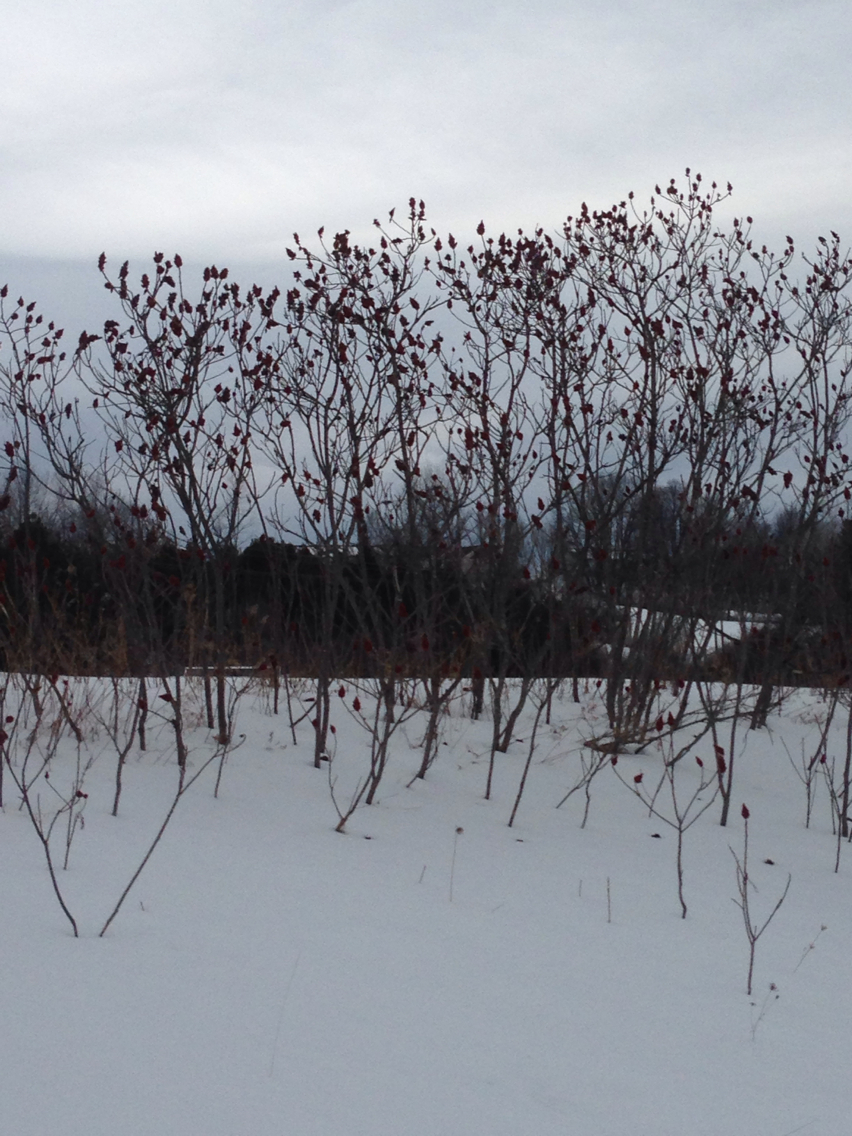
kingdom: Plantae
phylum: Tracheophyta
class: Magnoliopsida
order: Sapindales
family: Anacardiaceae
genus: Rhus
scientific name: Rhus typhina
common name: Staghorn sumac
